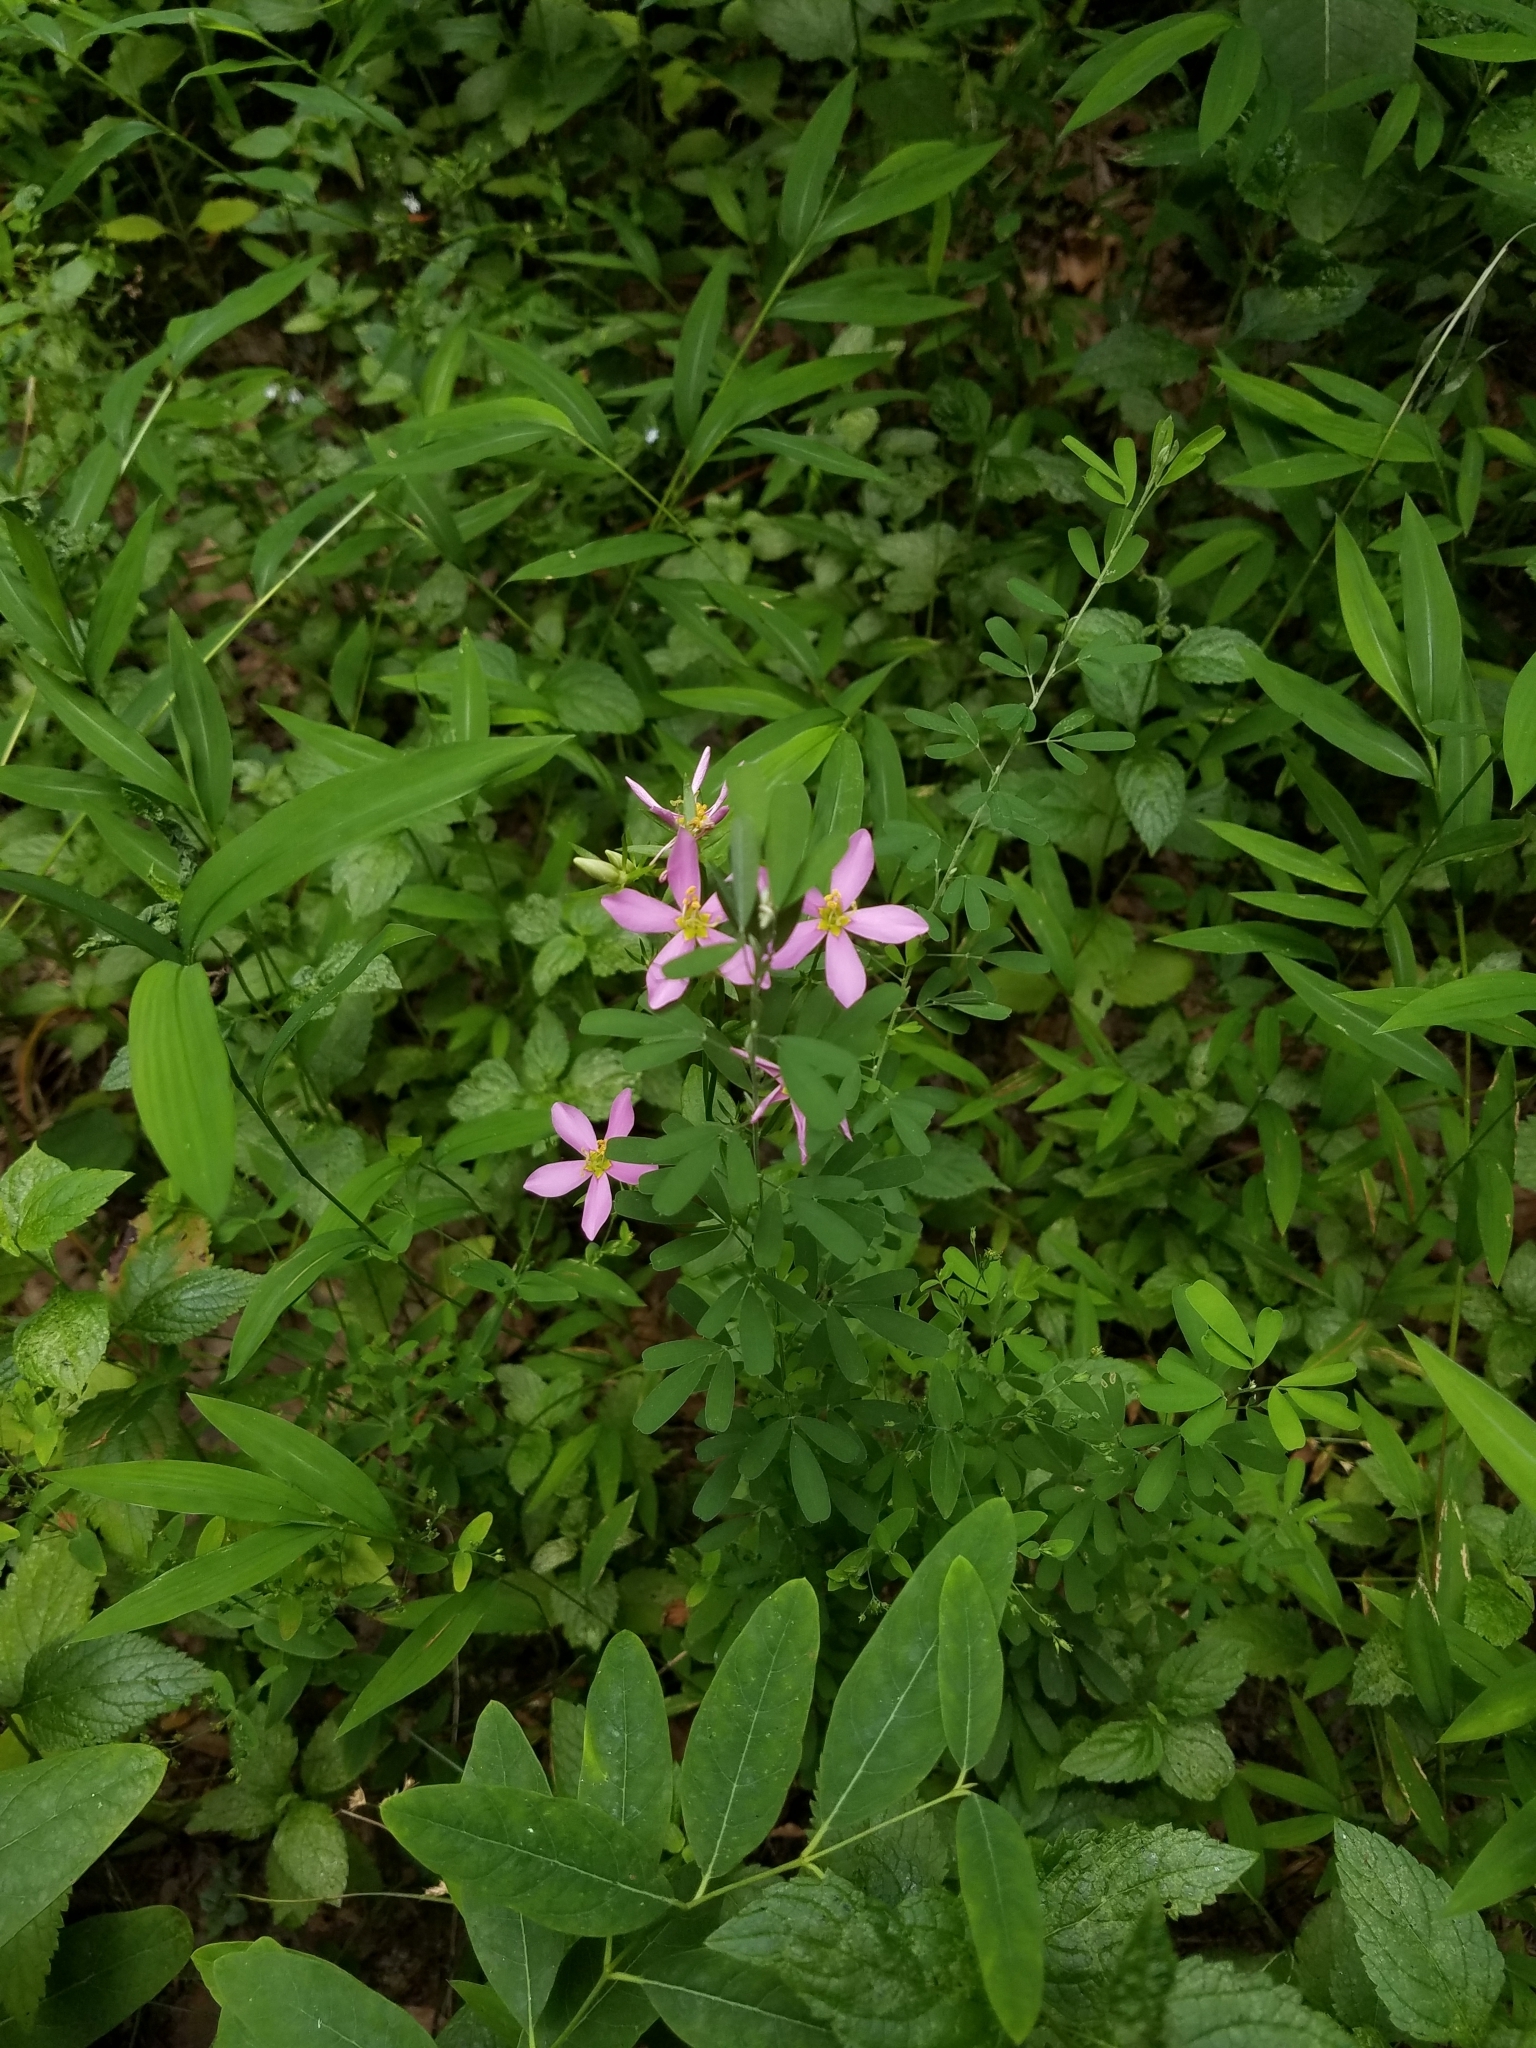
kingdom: Plantae
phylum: Tracheophyta
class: Magnoliopsida
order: Gentianales
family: Gentianaceae
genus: Sabatia
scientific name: Sabatia angularis
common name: Rose-pink
